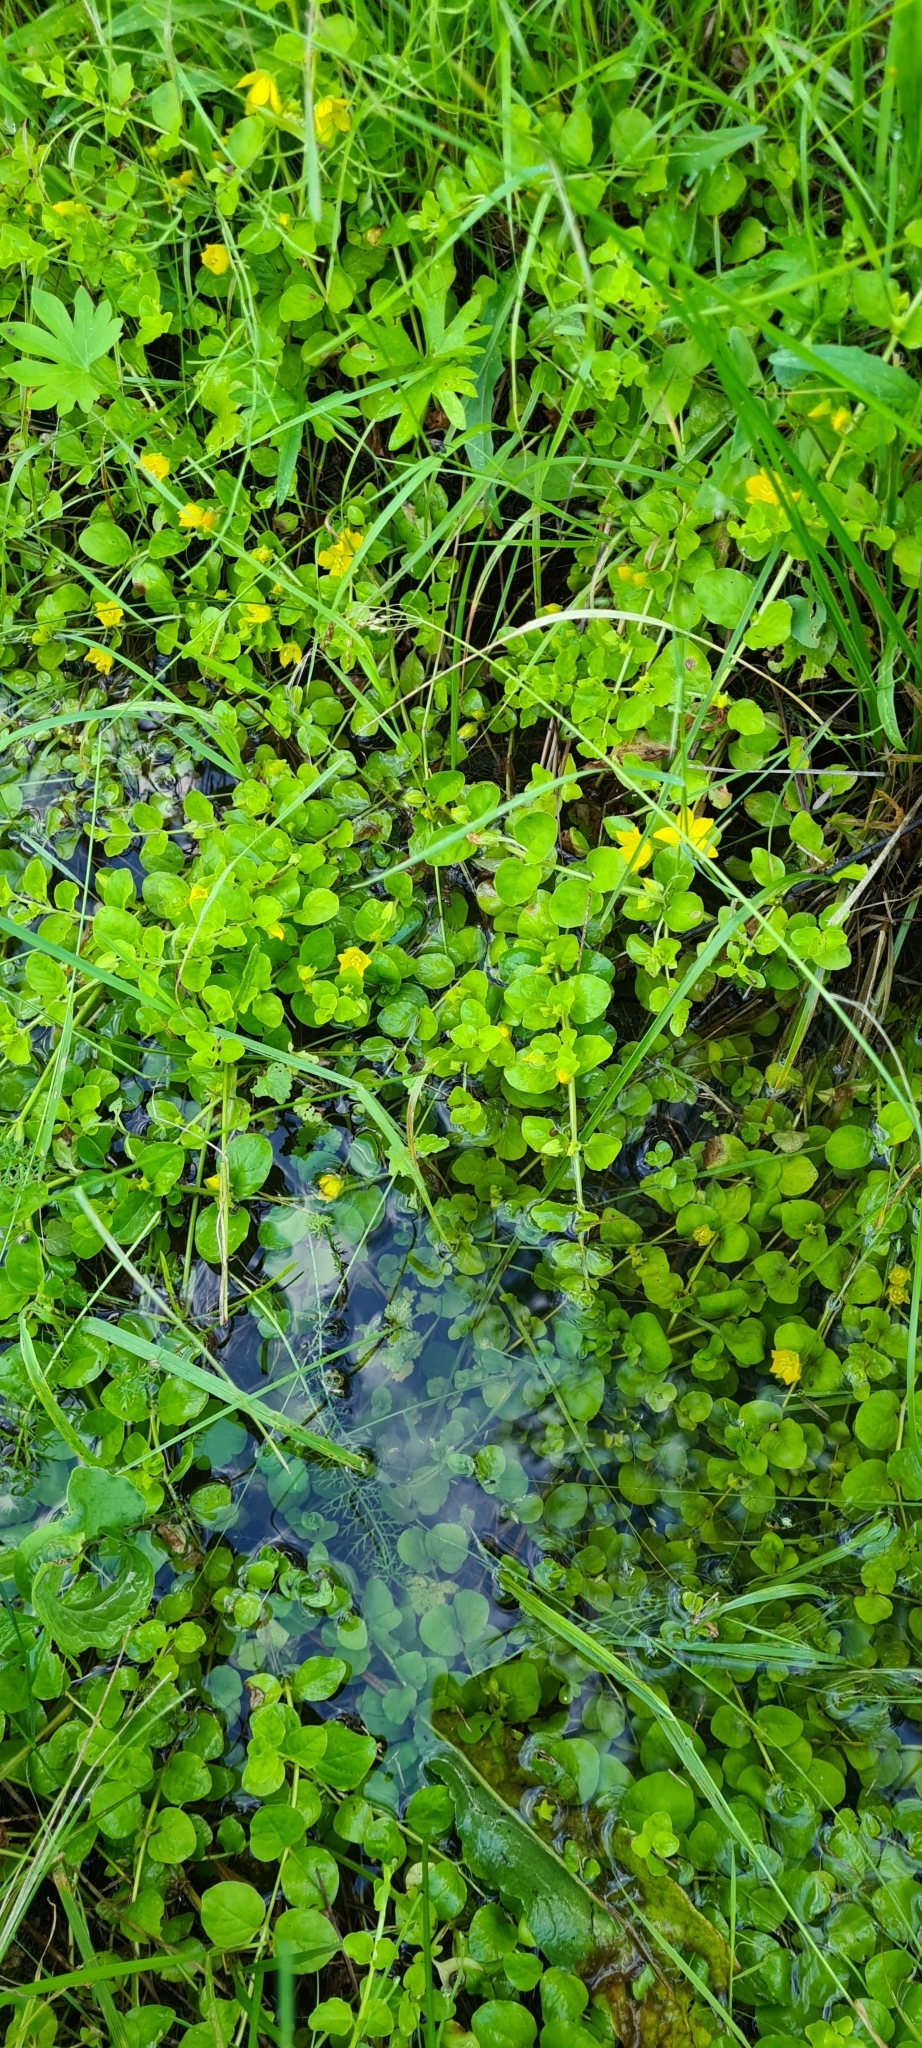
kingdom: Plantae
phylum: Tracheophyta
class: Magnoliopsida
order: Ericales
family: Primulaceae
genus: Lysimachia
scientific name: Lysimachia nummularia
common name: Moneywort
